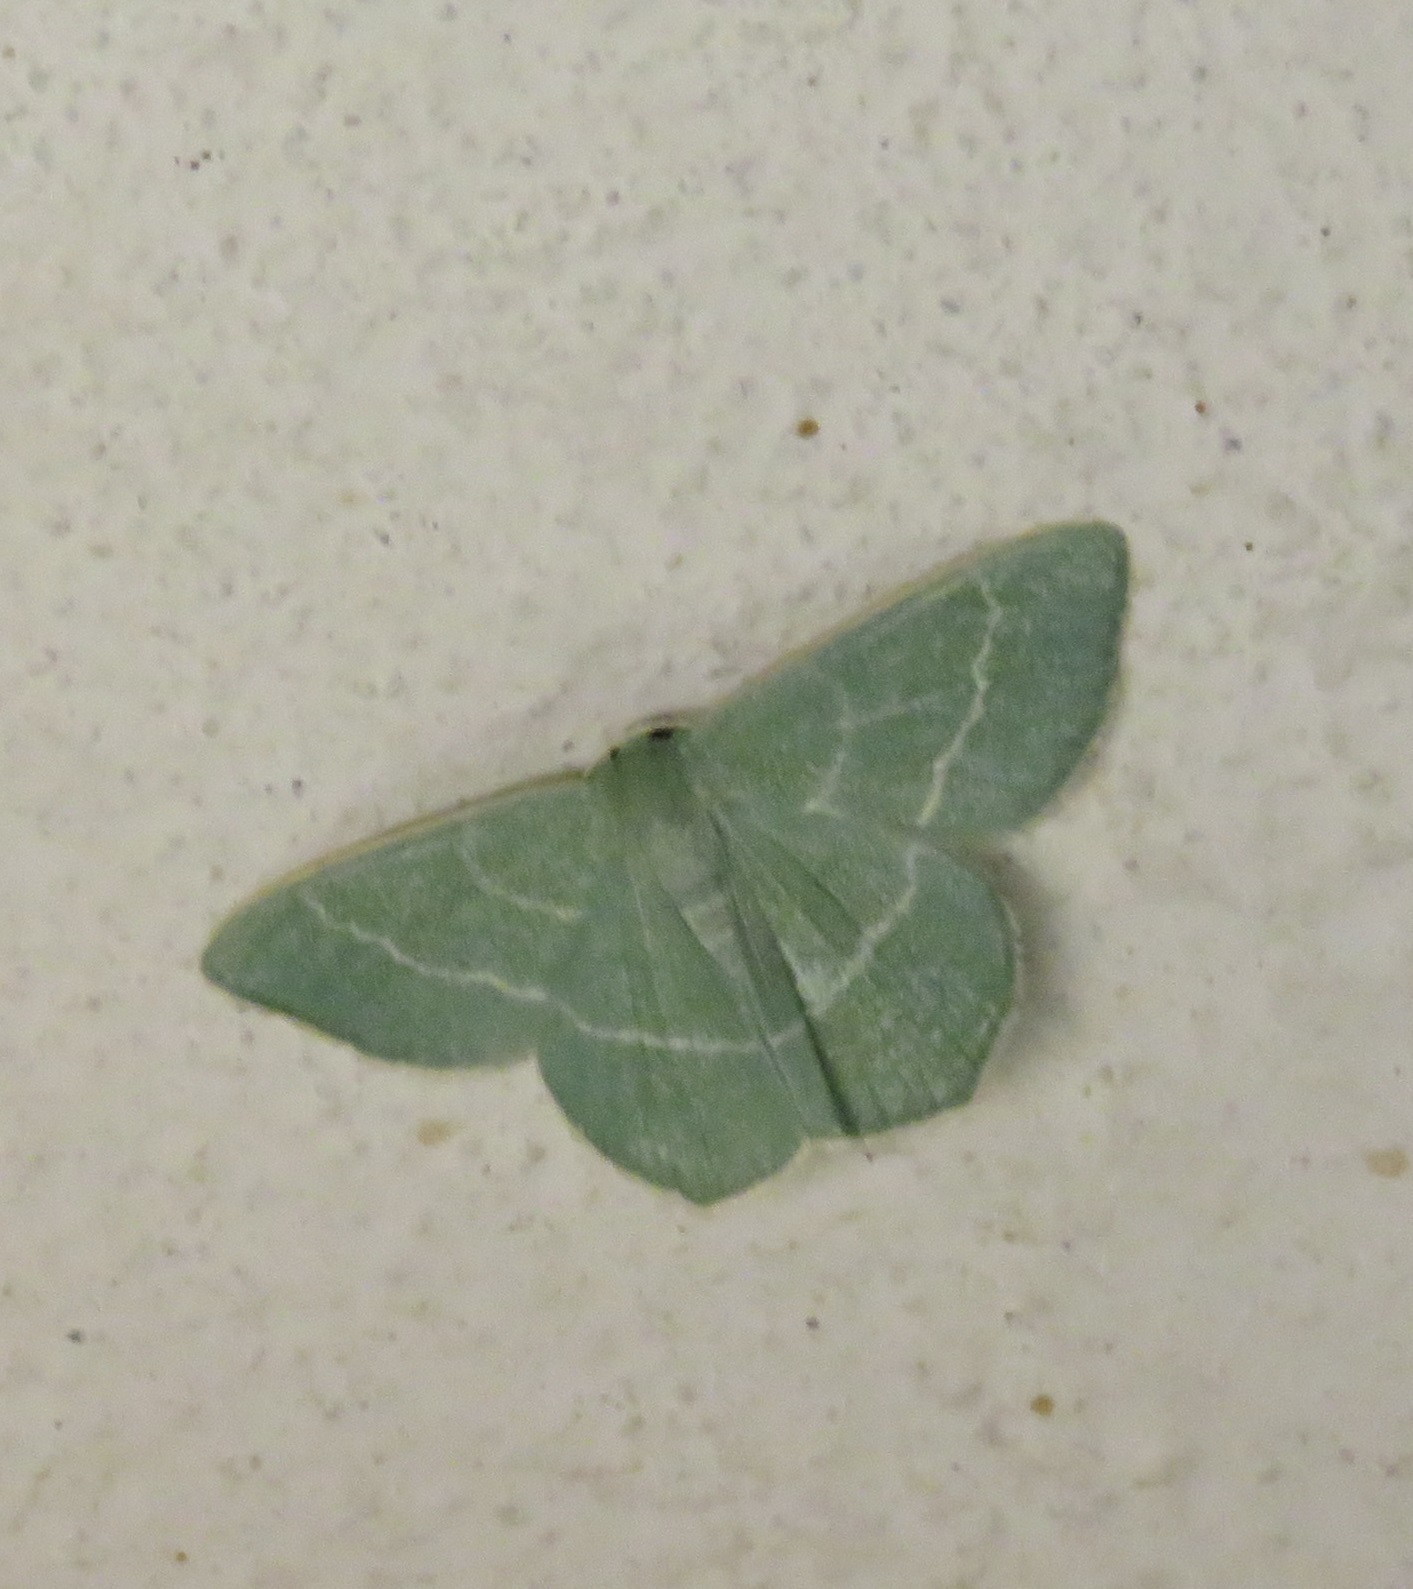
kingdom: Animalia
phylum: Arthropoda
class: Insecta
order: Lepidoptera
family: Geometridae
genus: Chlorissa
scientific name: Chlorissa viridata
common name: Small grass emerald
